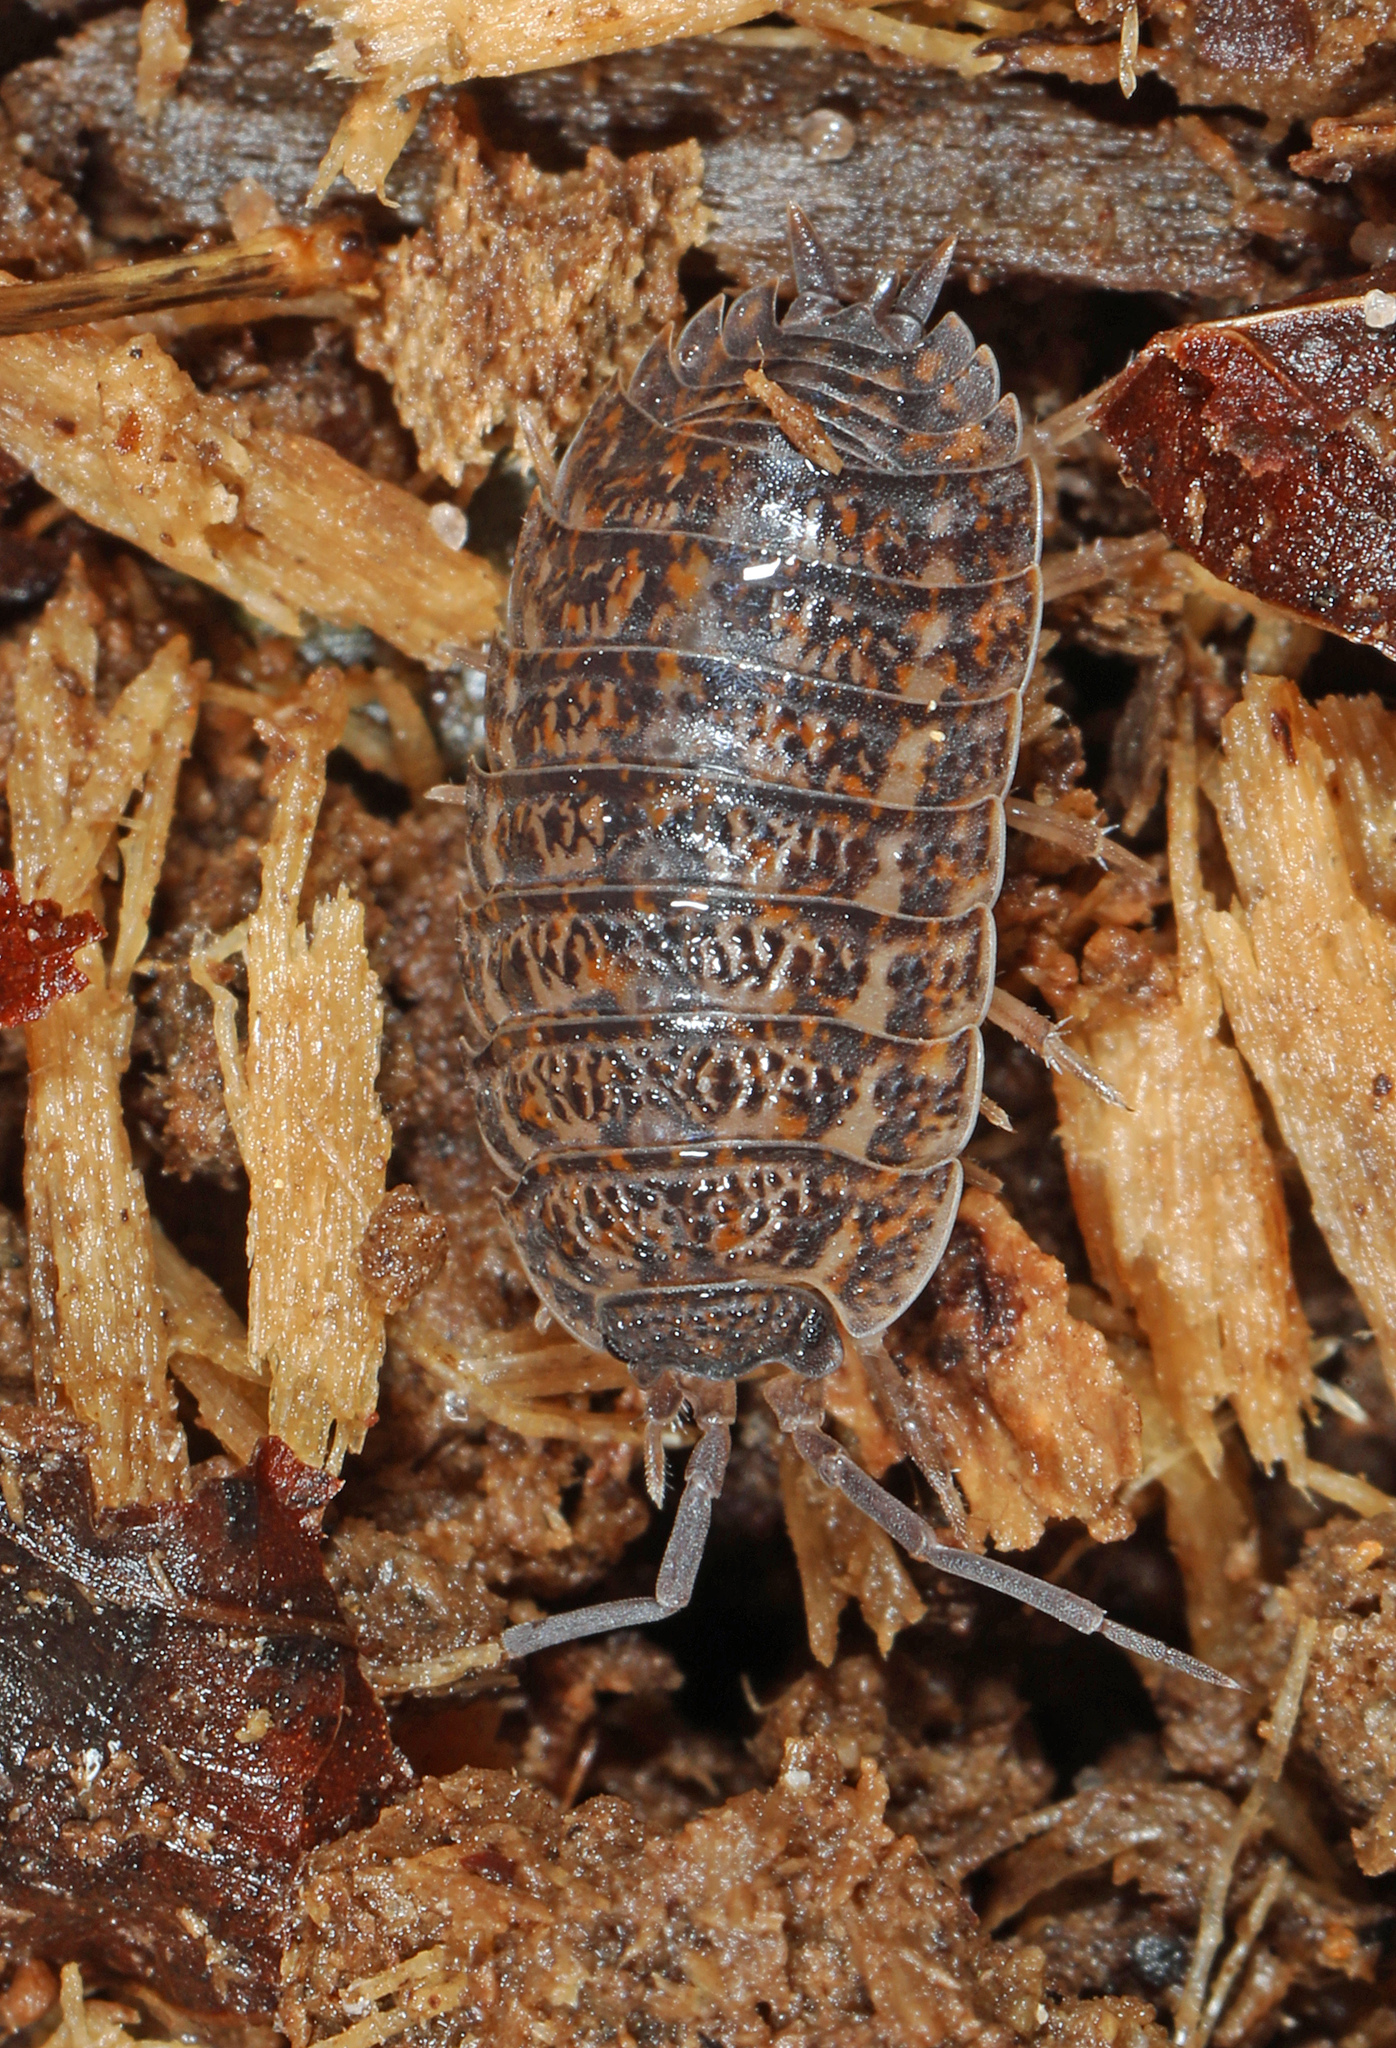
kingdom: Animalia
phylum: Arthropoda
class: Malacostraca
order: Isopoda
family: Trachelipodidae
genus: Trachelipus
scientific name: Trachelipus rathkii
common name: Isopod
